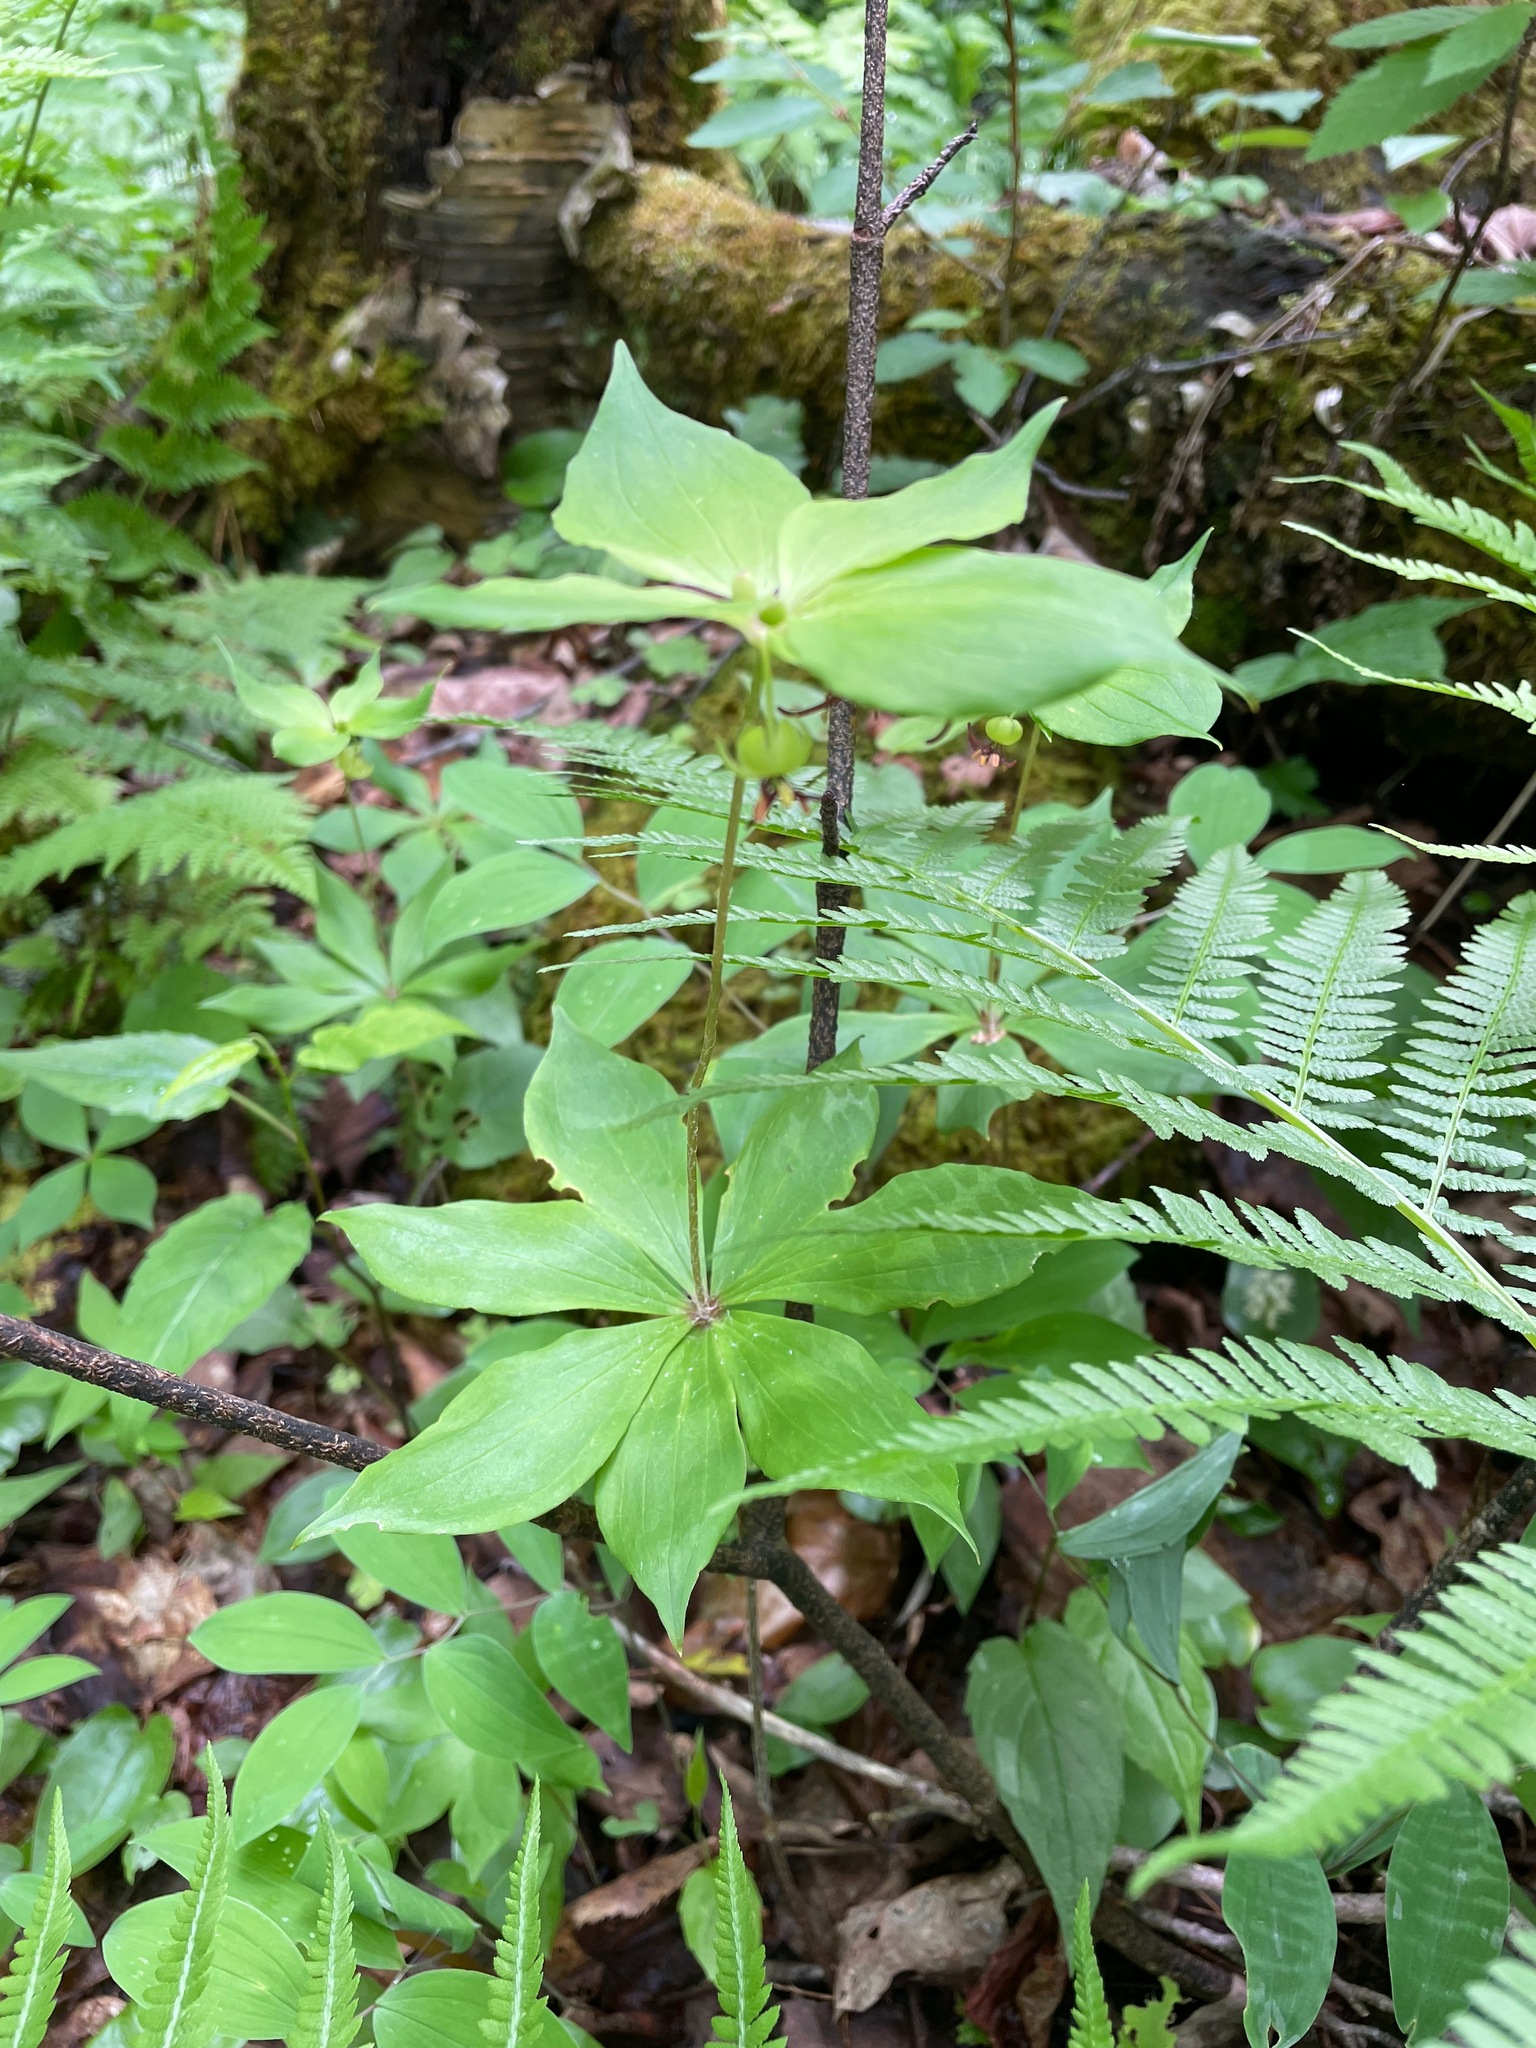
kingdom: Plantae
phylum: Tracheophyta
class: Liliopsida
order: Liliales
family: Liliaceae
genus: Medeola
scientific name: Medeola virginiana
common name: Indian cucumber-root
